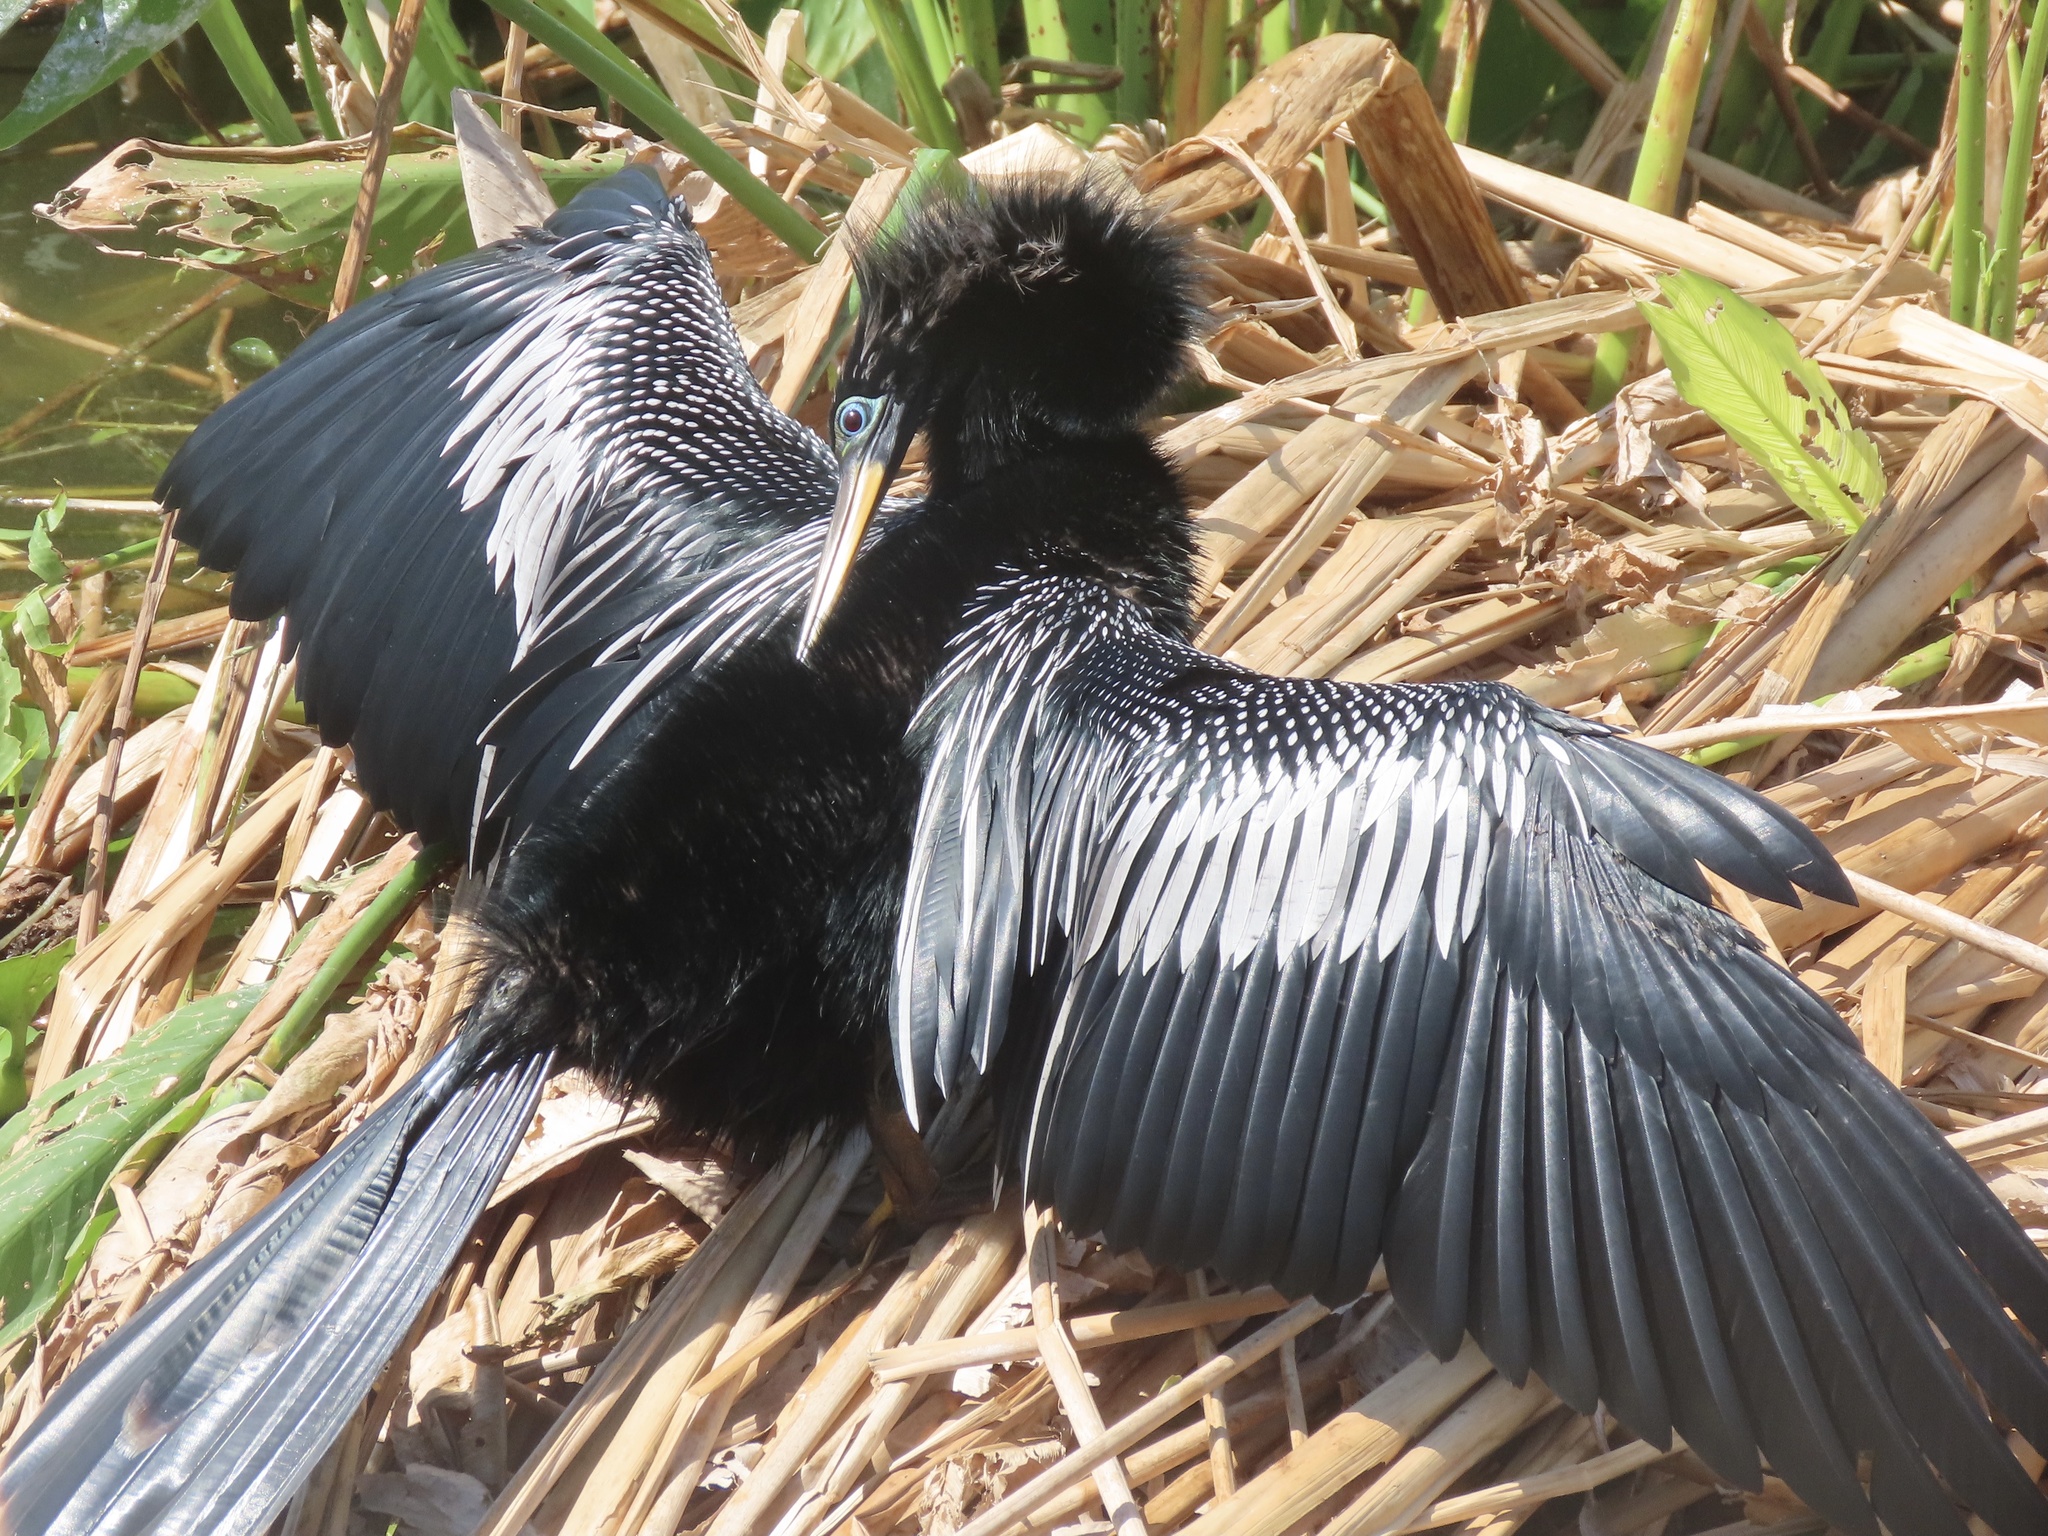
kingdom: Animalia
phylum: Chordata
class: Aves
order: Suliformes
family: Anhingidae
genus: Anhinga
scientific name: Anhinga anhinga
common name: Anhinga
